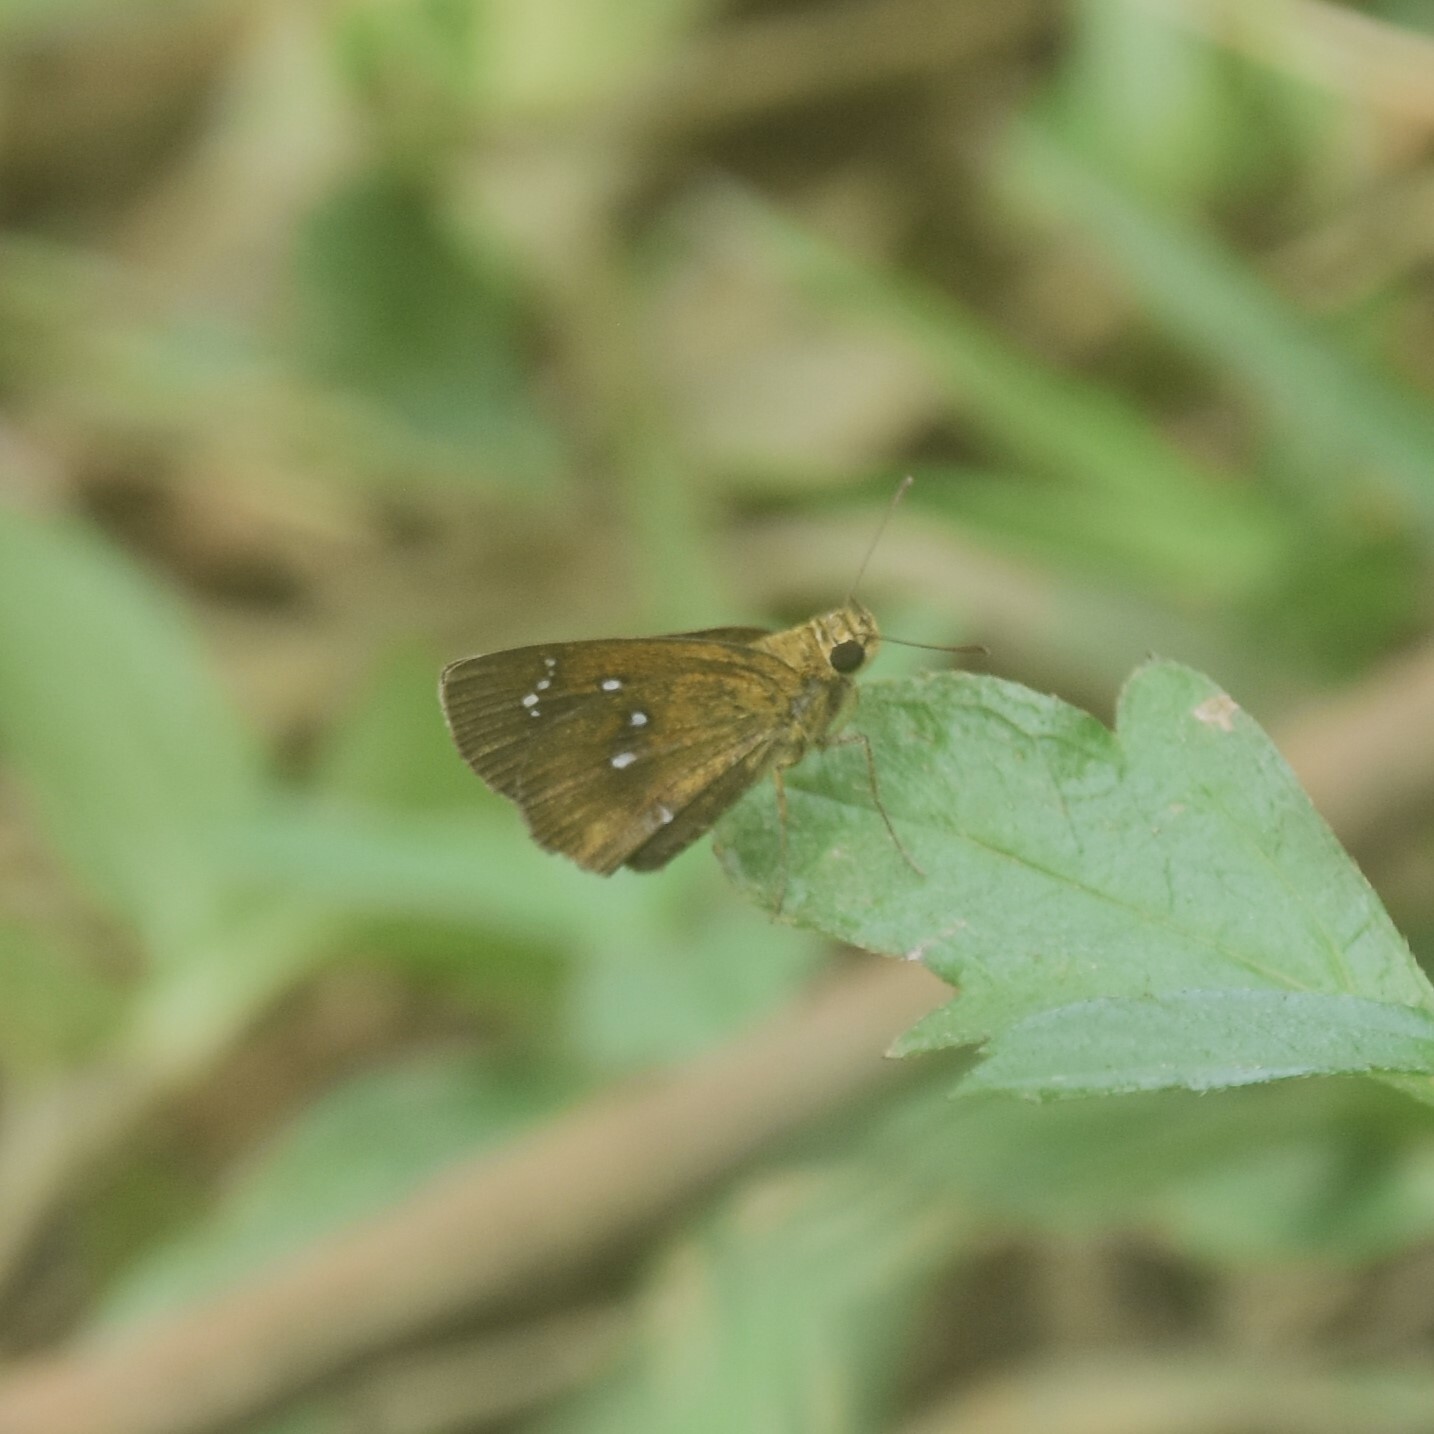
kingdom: Animalia
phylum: Arthropoda
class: Insecta
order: Lepidoptera
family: Hesperiidae
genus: Iambrix
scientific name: Iambrix salsala
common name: Chestnut bob
